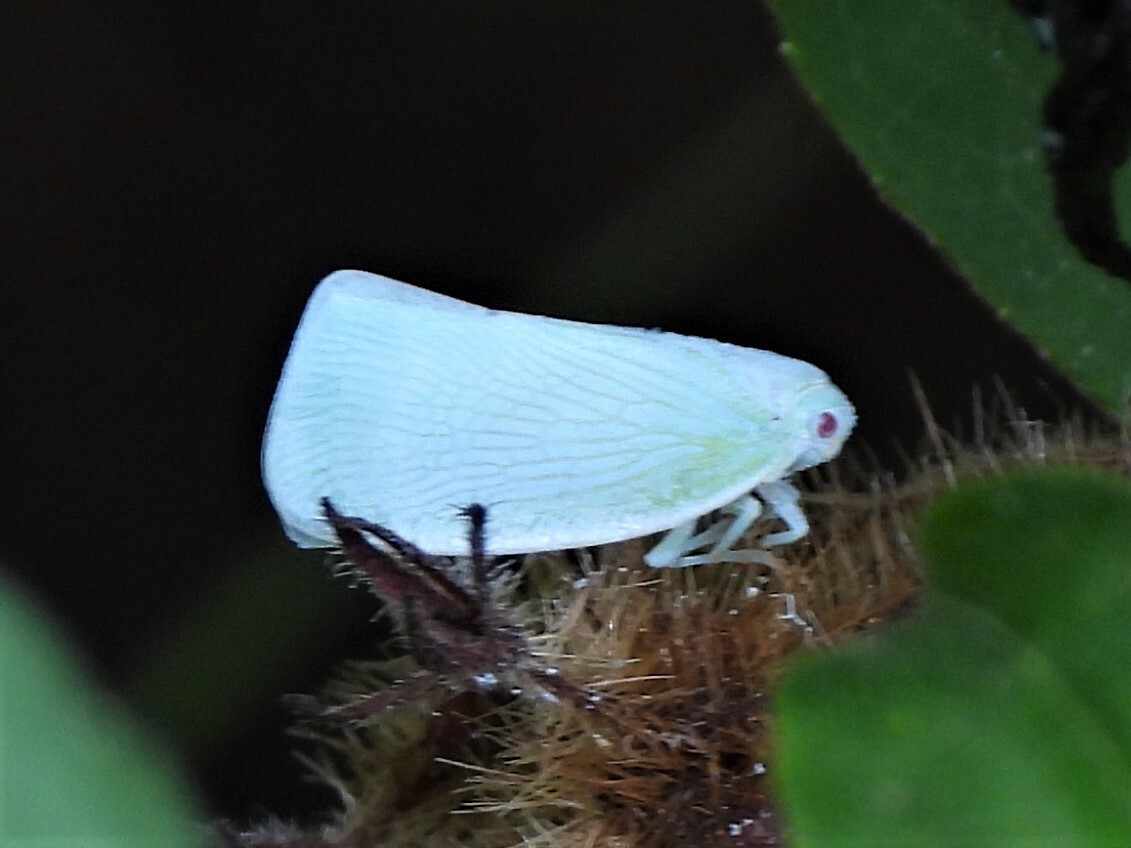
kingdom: Animalia
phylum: Arthropoda
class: Insecta
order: Hemiptera
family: Flatidae
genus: Flatormenis
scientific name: Flatormenis proxima
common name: Northern flatid planthopper
